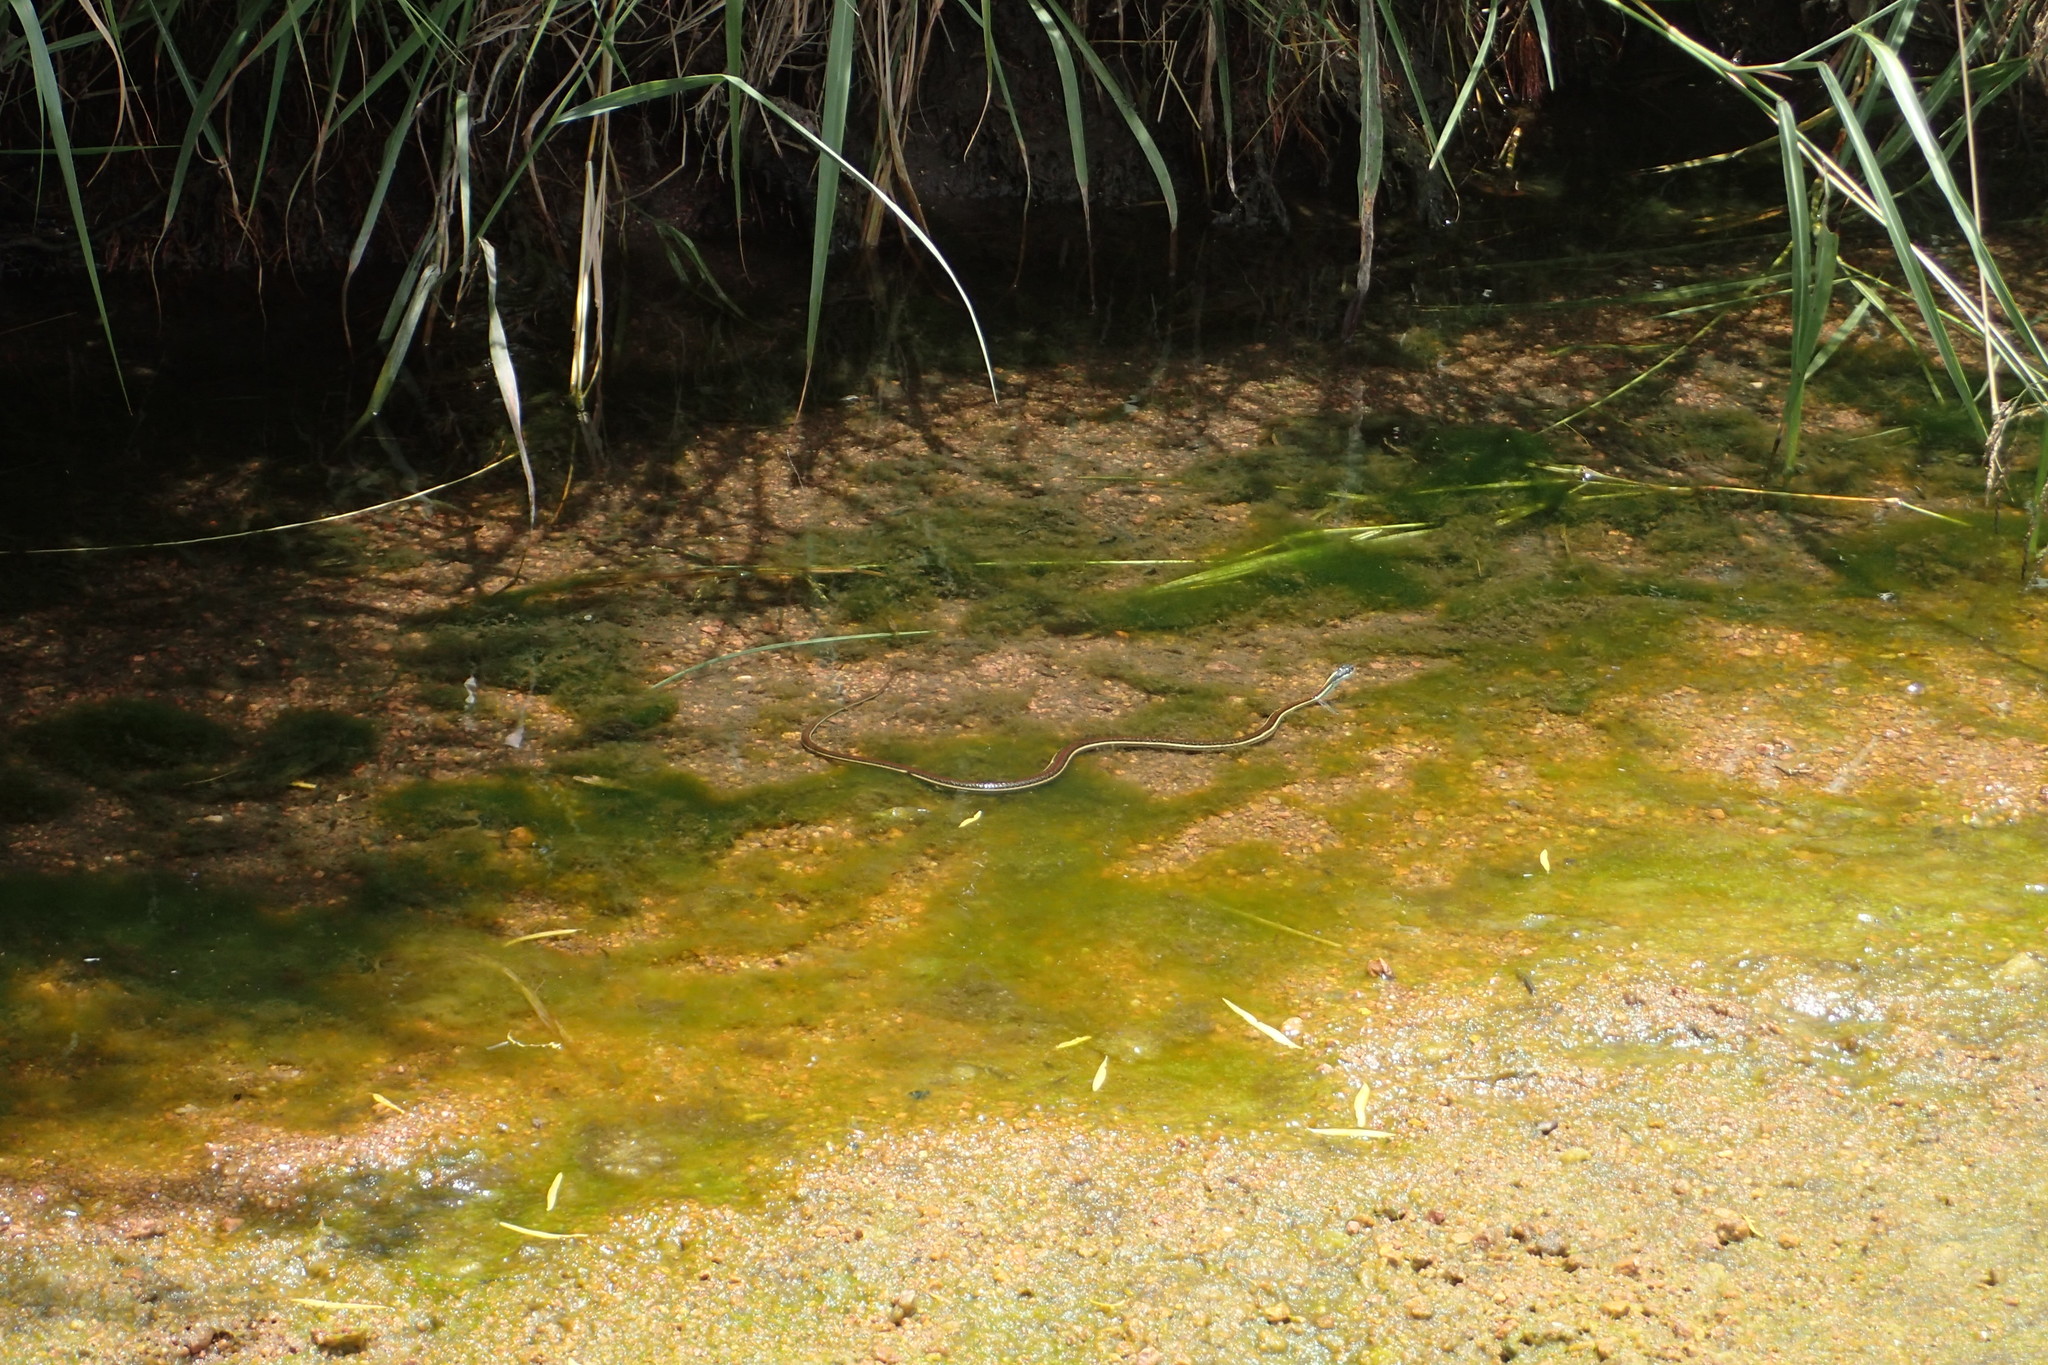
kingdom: Animalia
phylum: Chordata
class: Squamata
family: Colubridae
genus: Thamnophis
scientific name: Thamnophis proximus
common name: Western ribbon snake
